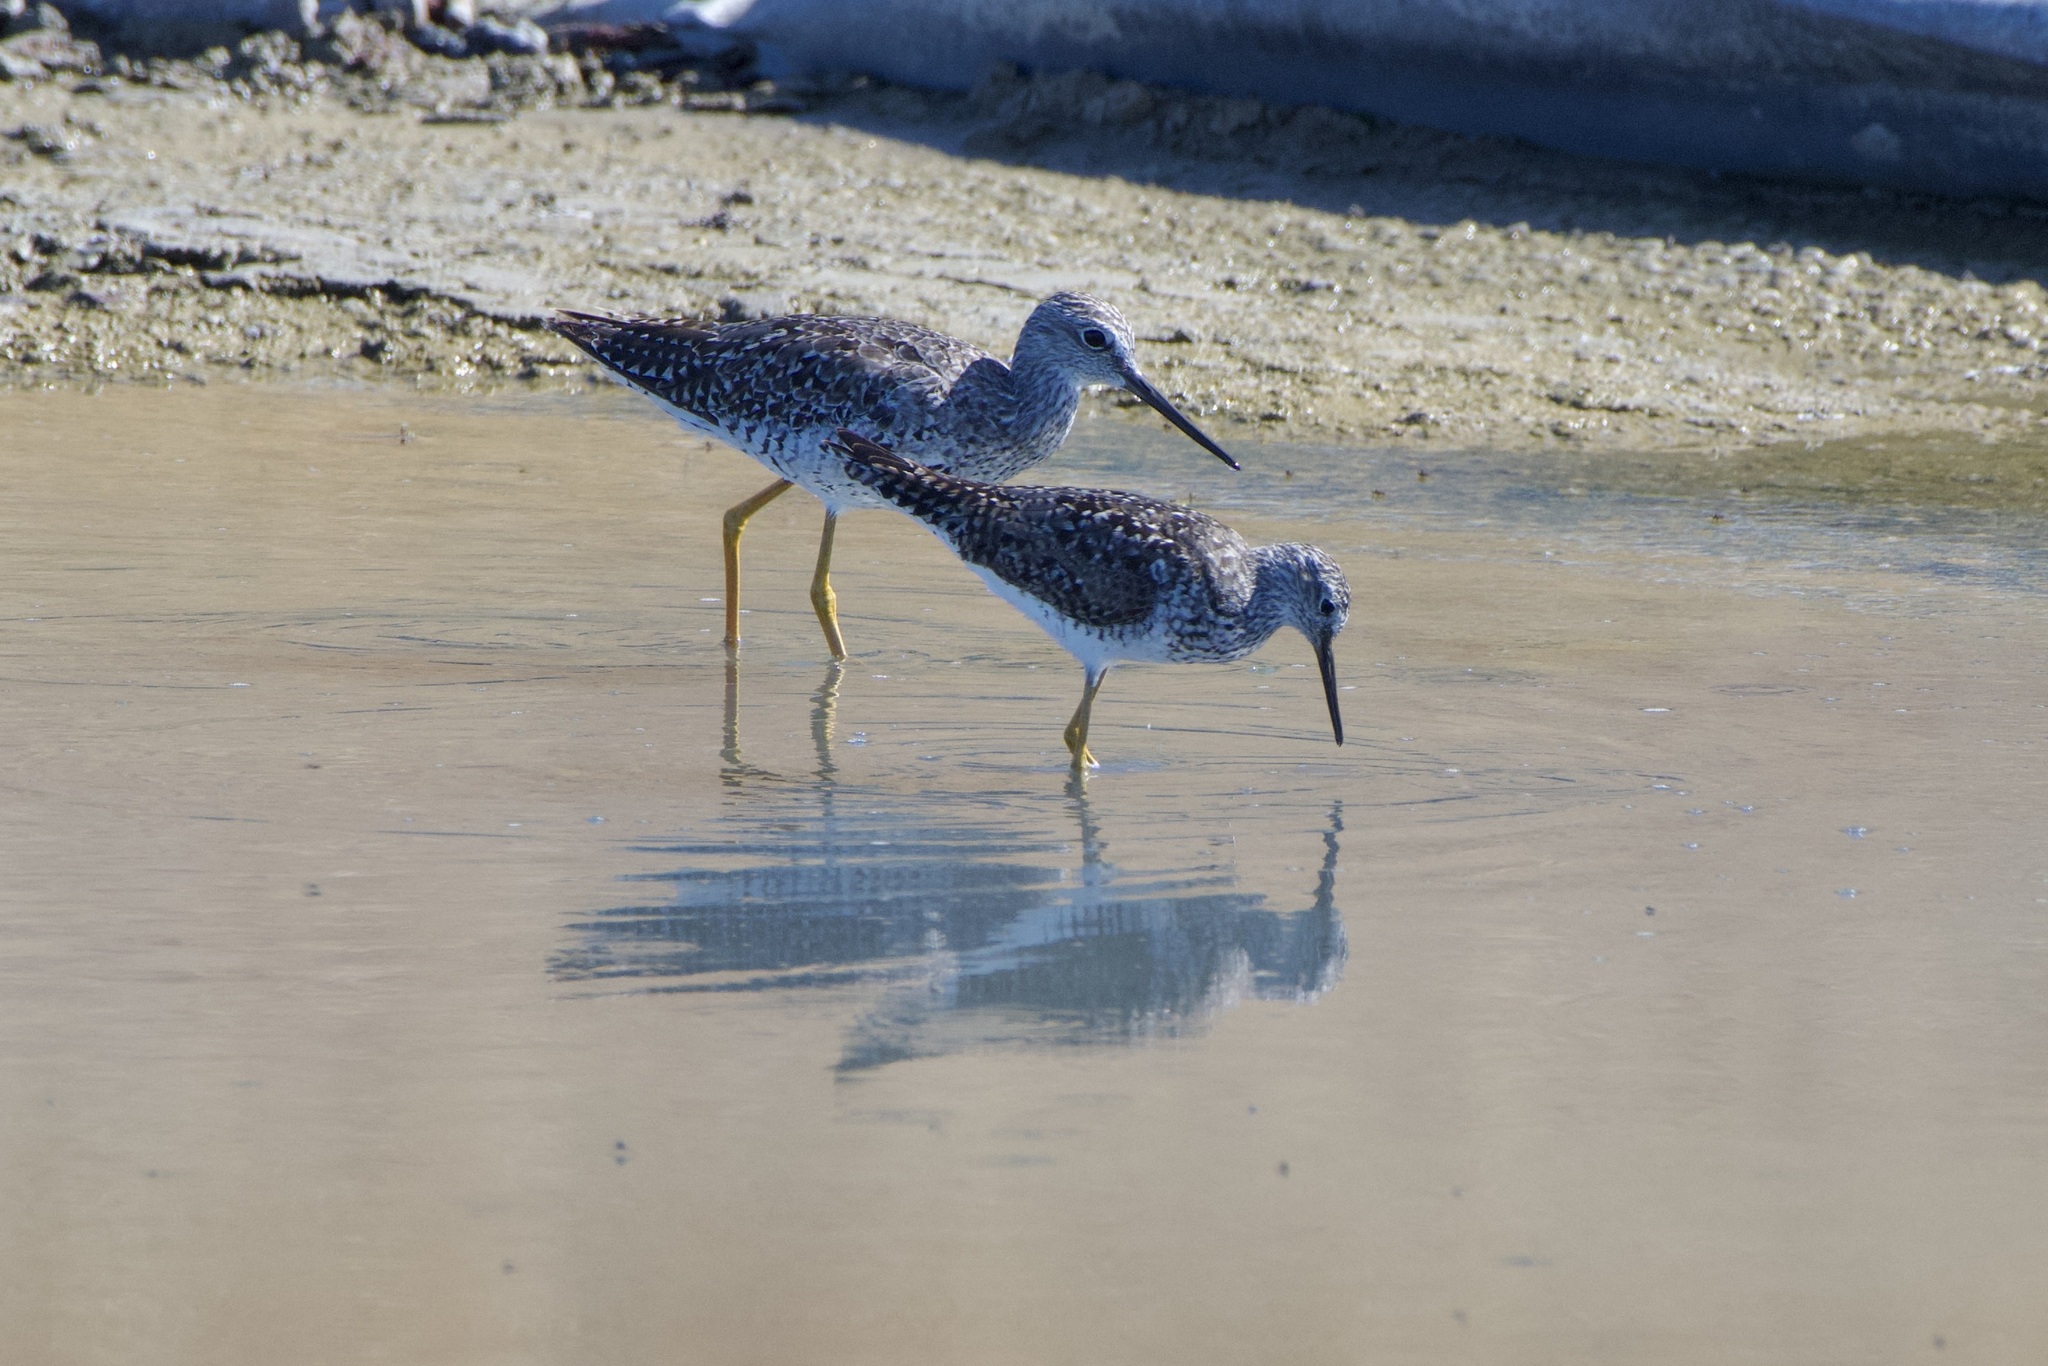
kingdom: Animalia
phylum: Chordata
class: Aves
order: Charadriiformes
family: Scolopacidae
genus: Tringa
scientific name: Tringa flavipes
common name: Lesser yellowlegs
